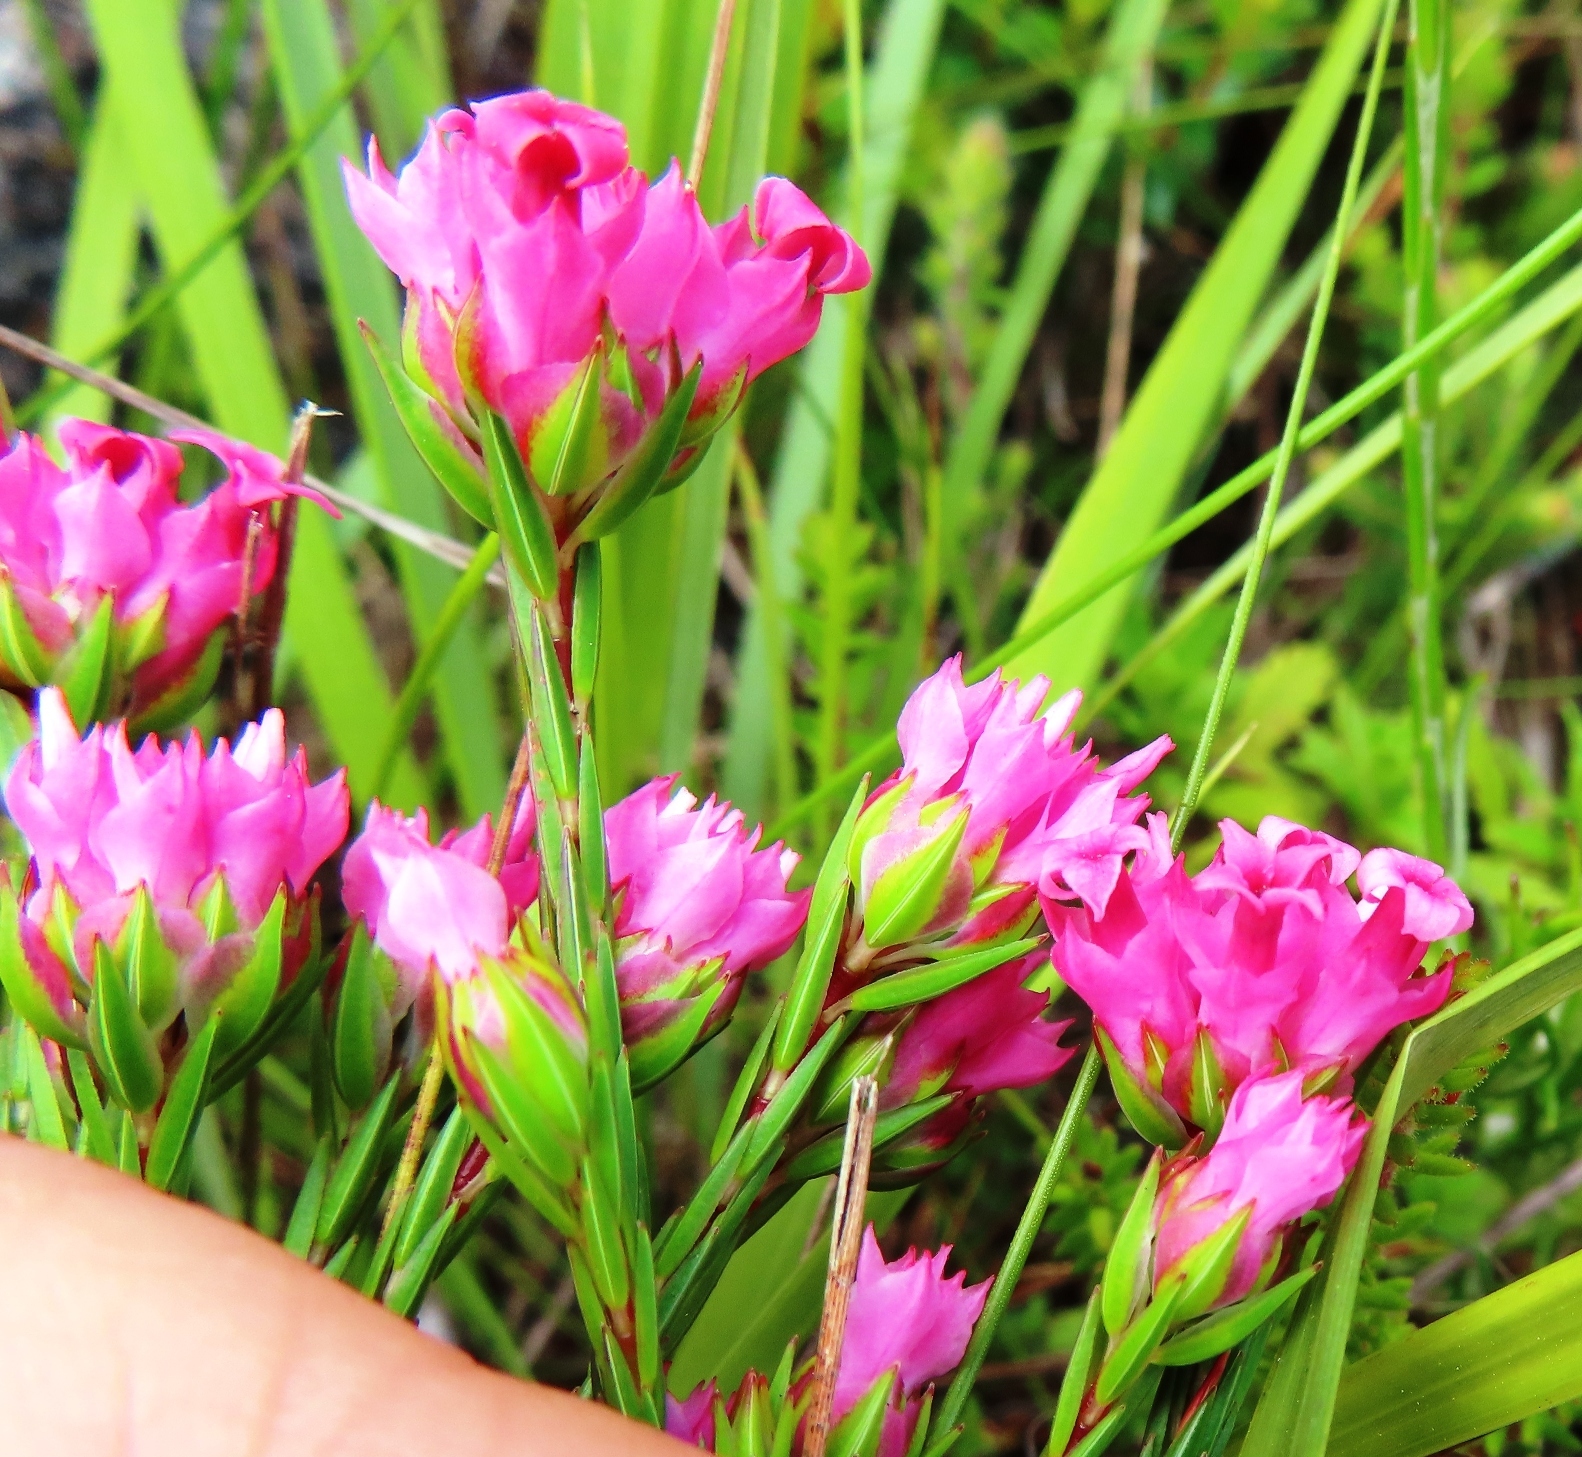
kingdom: Plantae
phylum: Tracheophyta
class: Magnoliopsida
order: Ericales
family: Ericaceae
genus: Erica
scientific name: Erica bracteolaris
